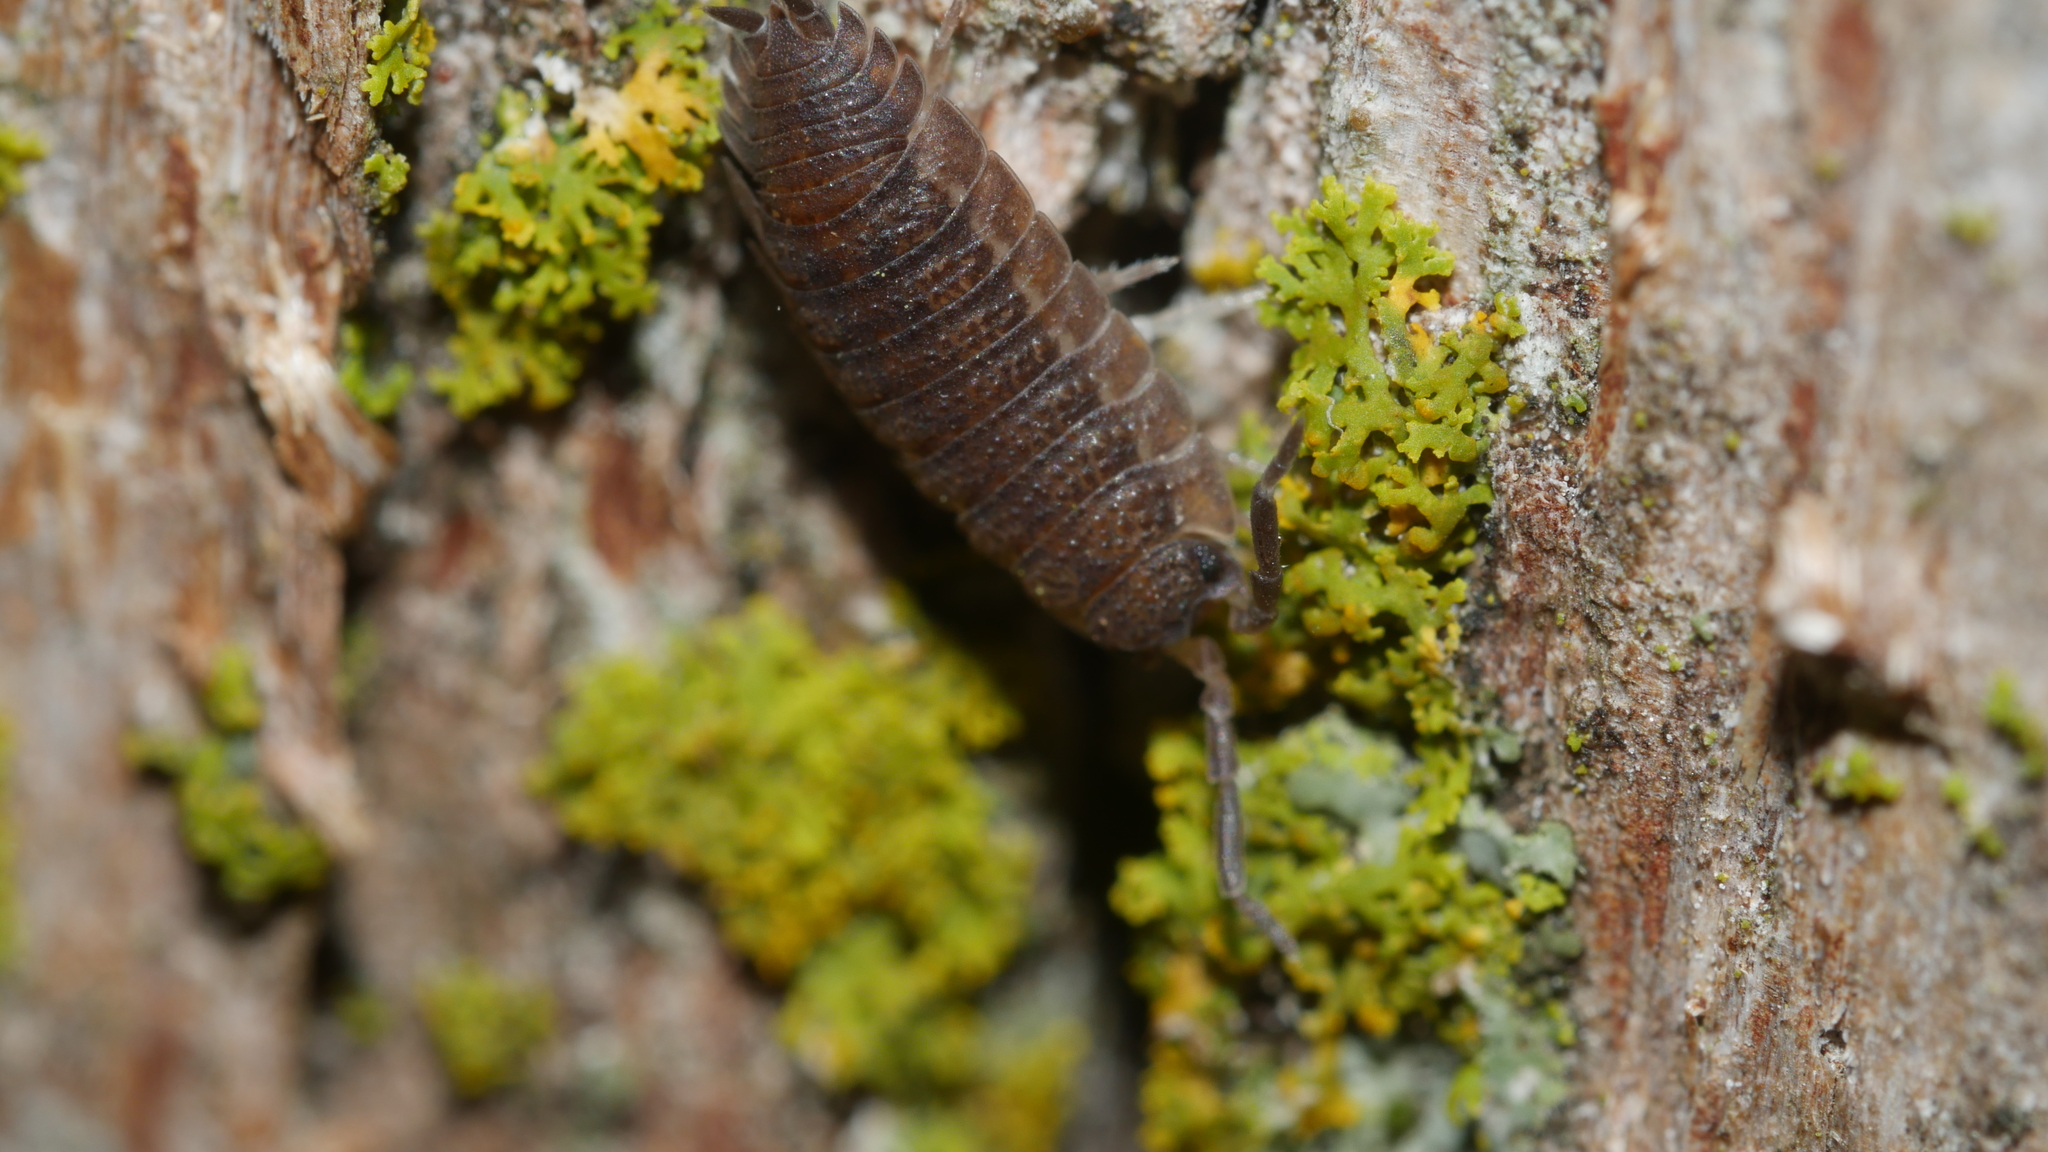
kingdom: Animalia
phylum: Arthropoda
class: Malacostraca
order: Isopoda
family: Porcellionidae
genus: Porcellio
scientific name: Porcellio scaber
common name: Common rough woodlouse
